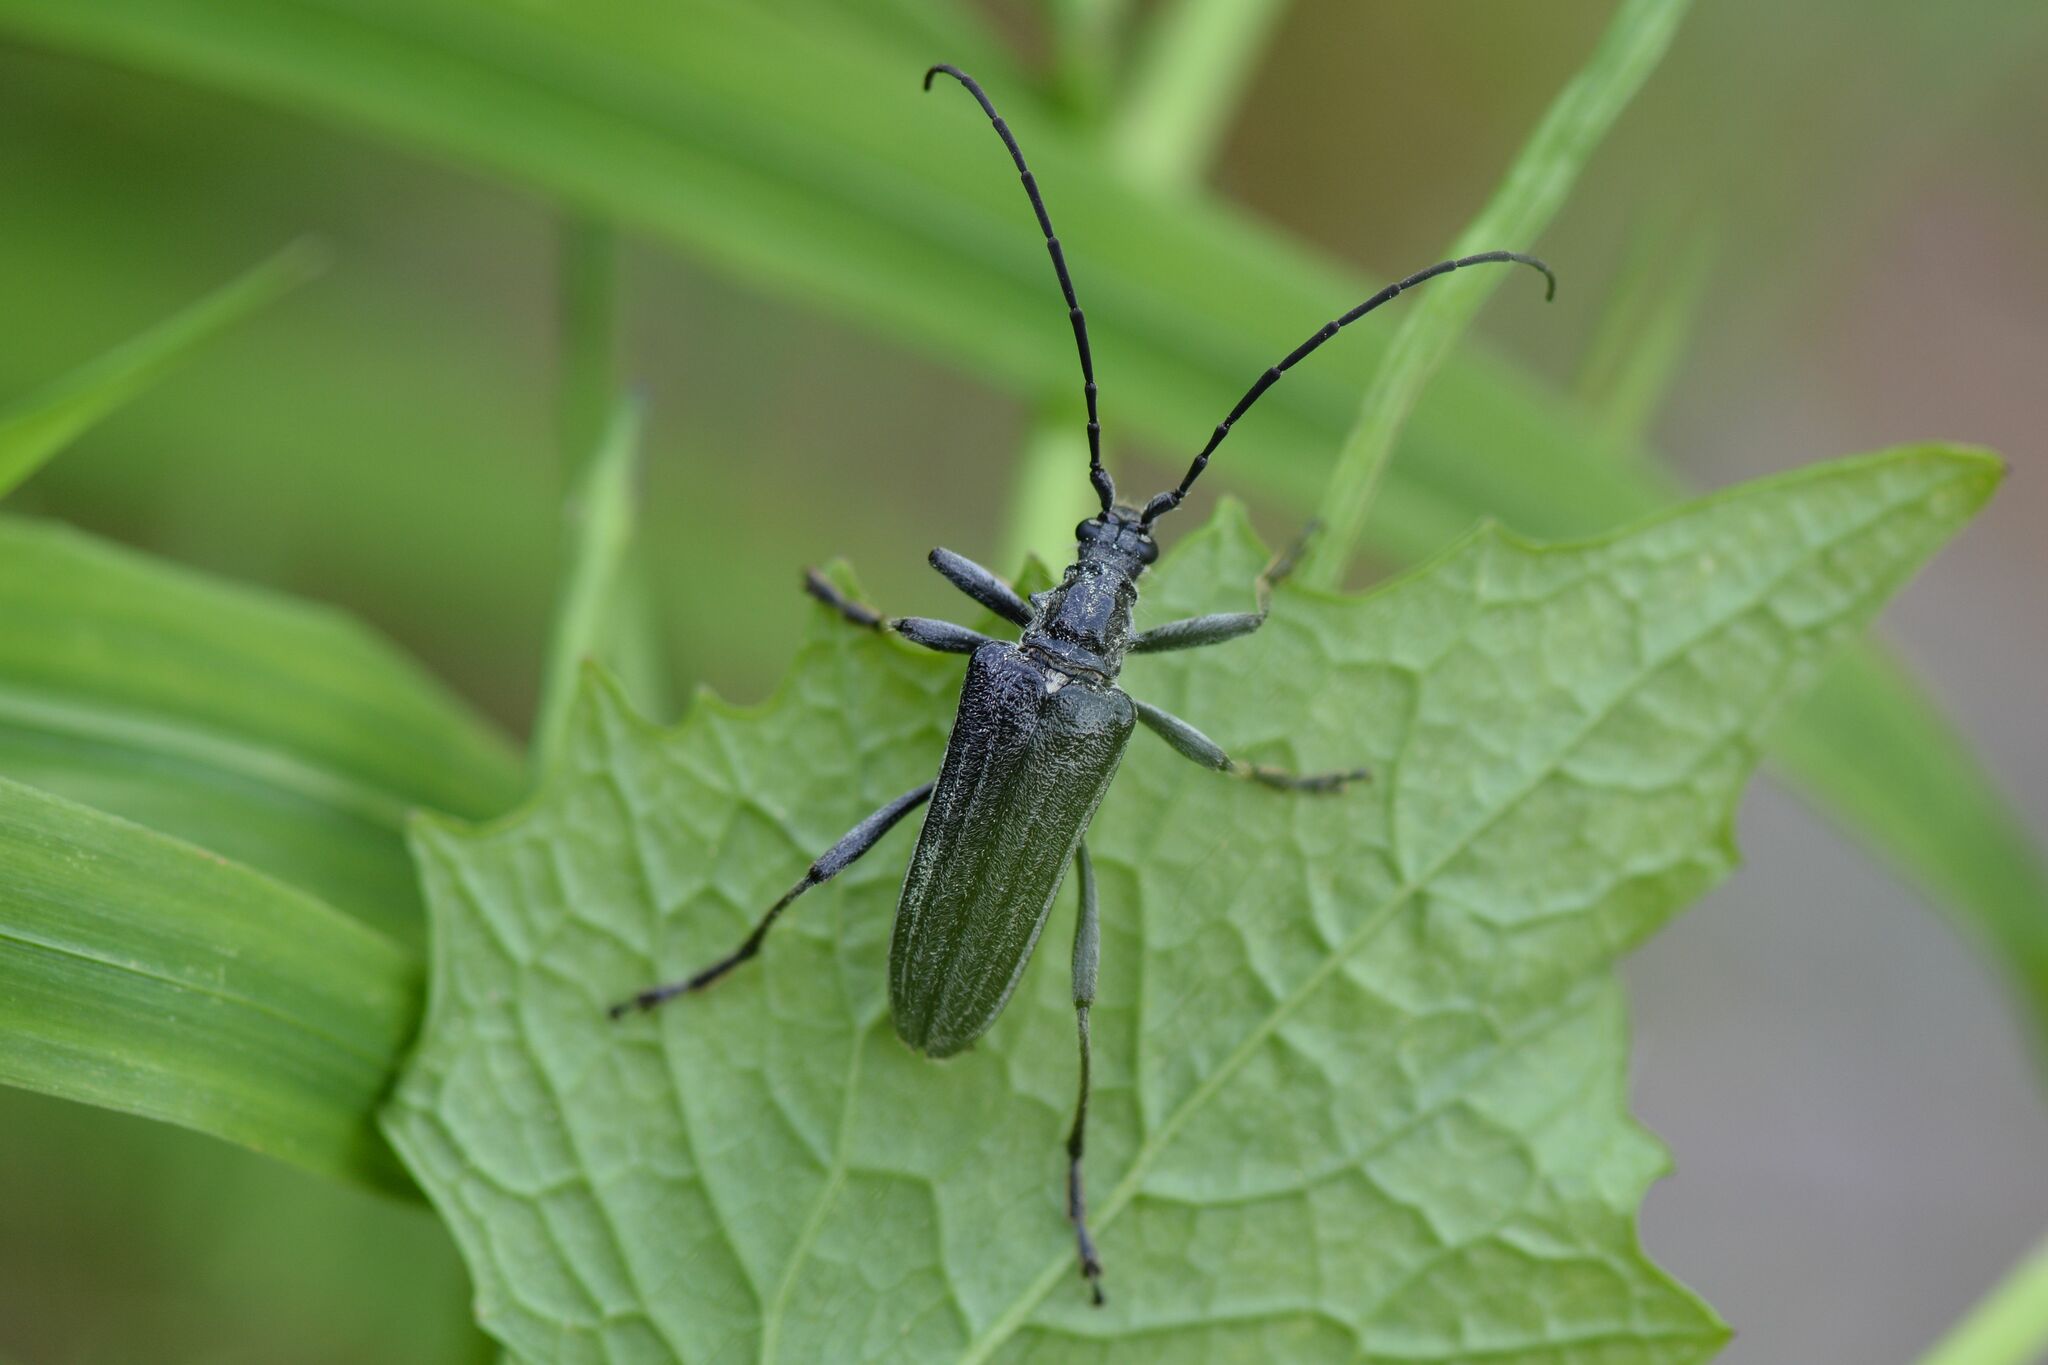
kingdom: Animalia
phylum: Arthropoda
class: Insecta
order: Coleoptera
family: Cerambycidae
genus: Oxymirus
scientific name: Oxymirus cursor
